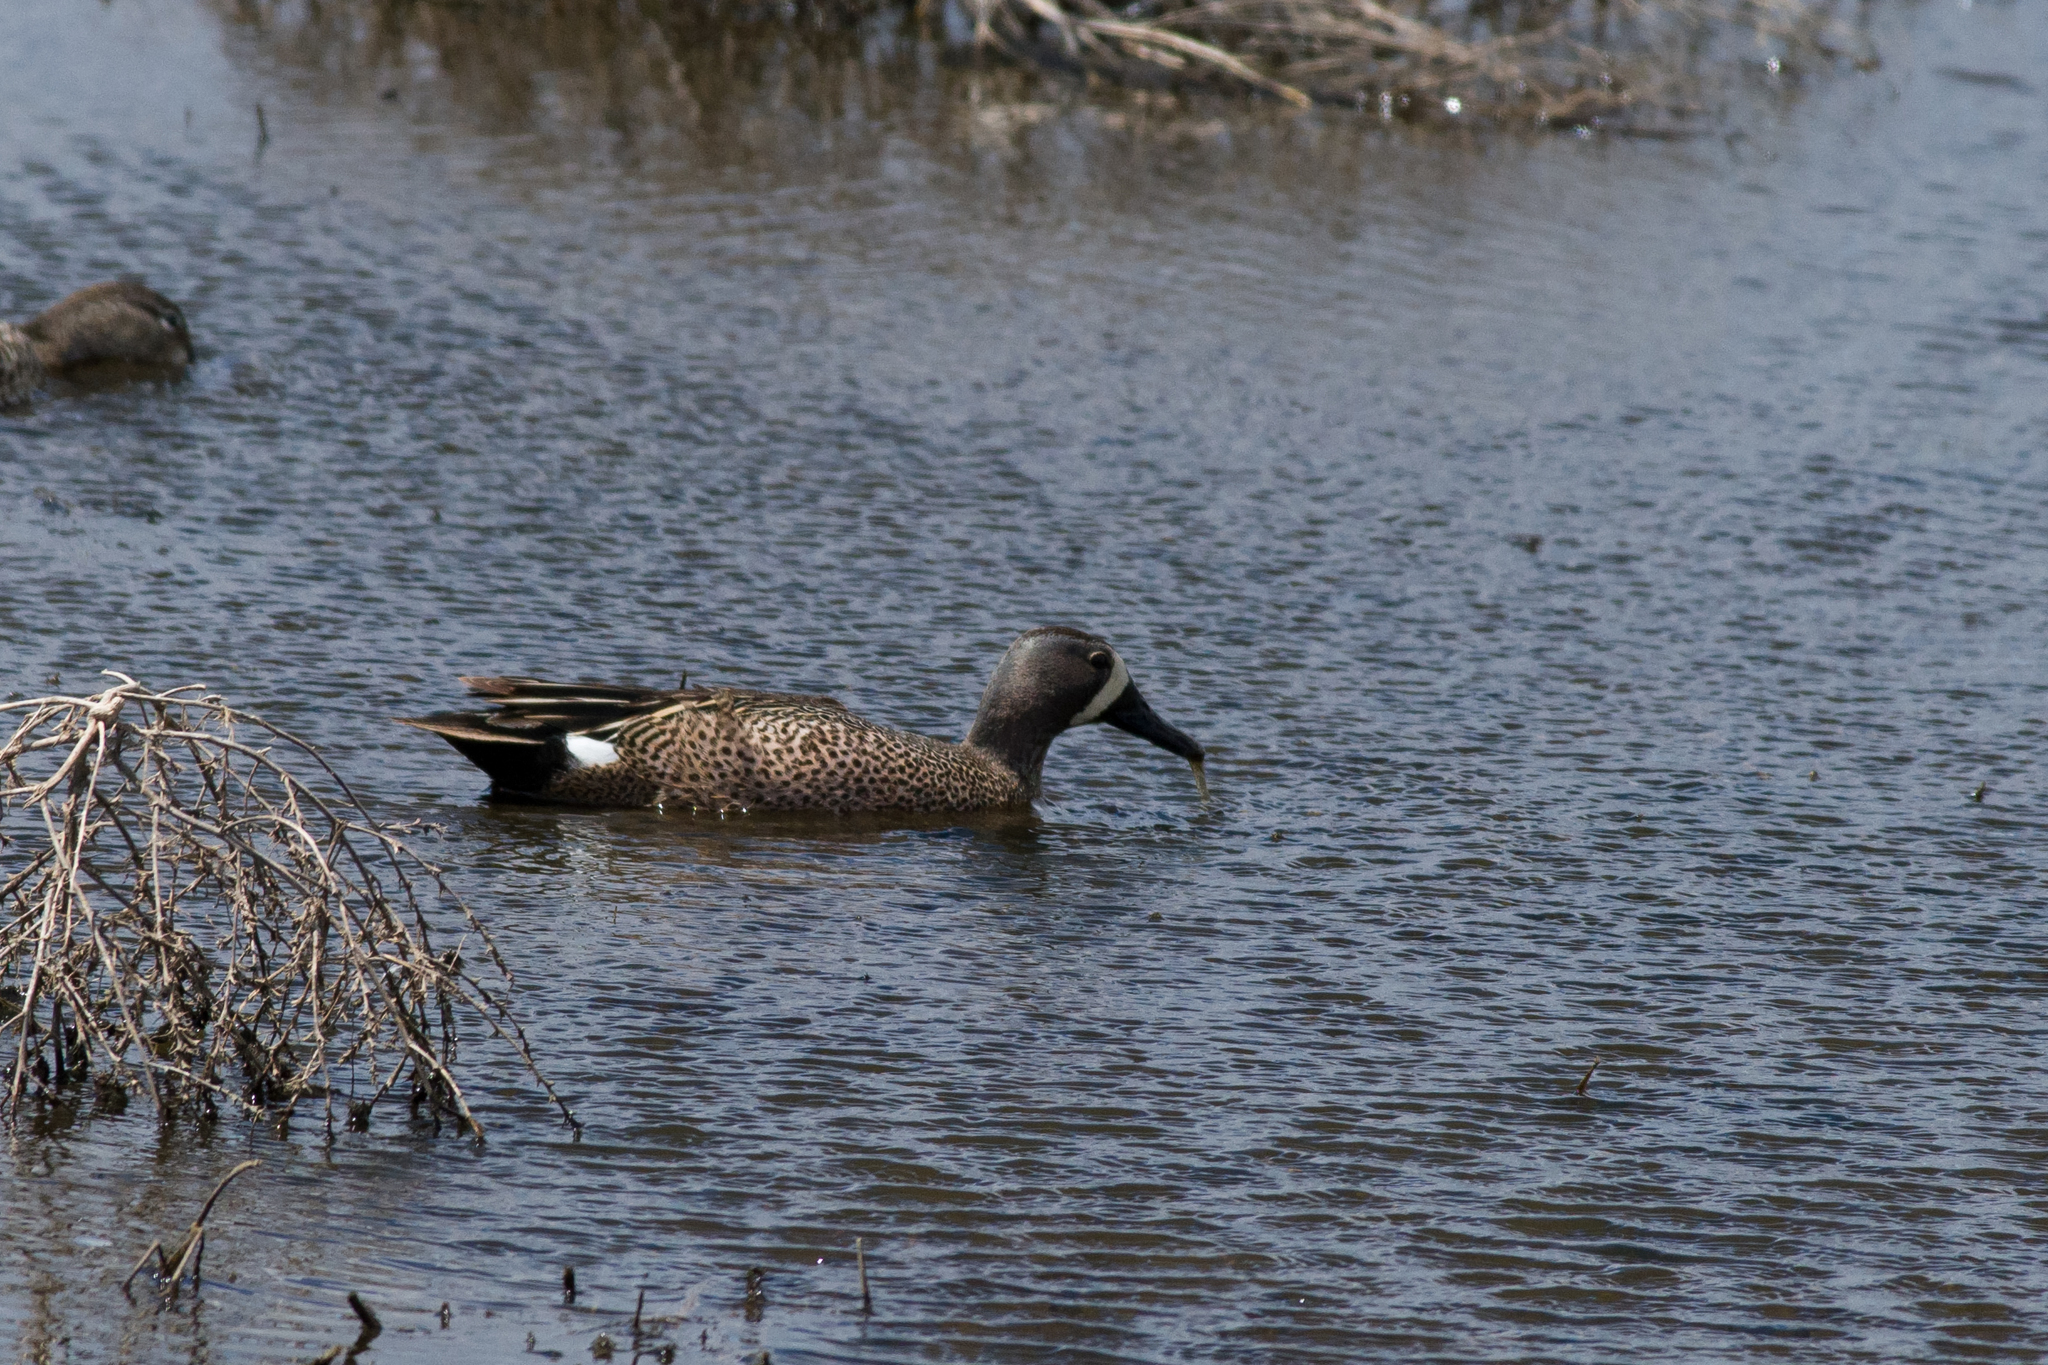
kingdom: Animalia
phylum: Chordata
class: Aves
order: Anseriformes
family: Anatidae
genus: Spatula
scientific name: Spatula discors
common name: Blue-winged teal
